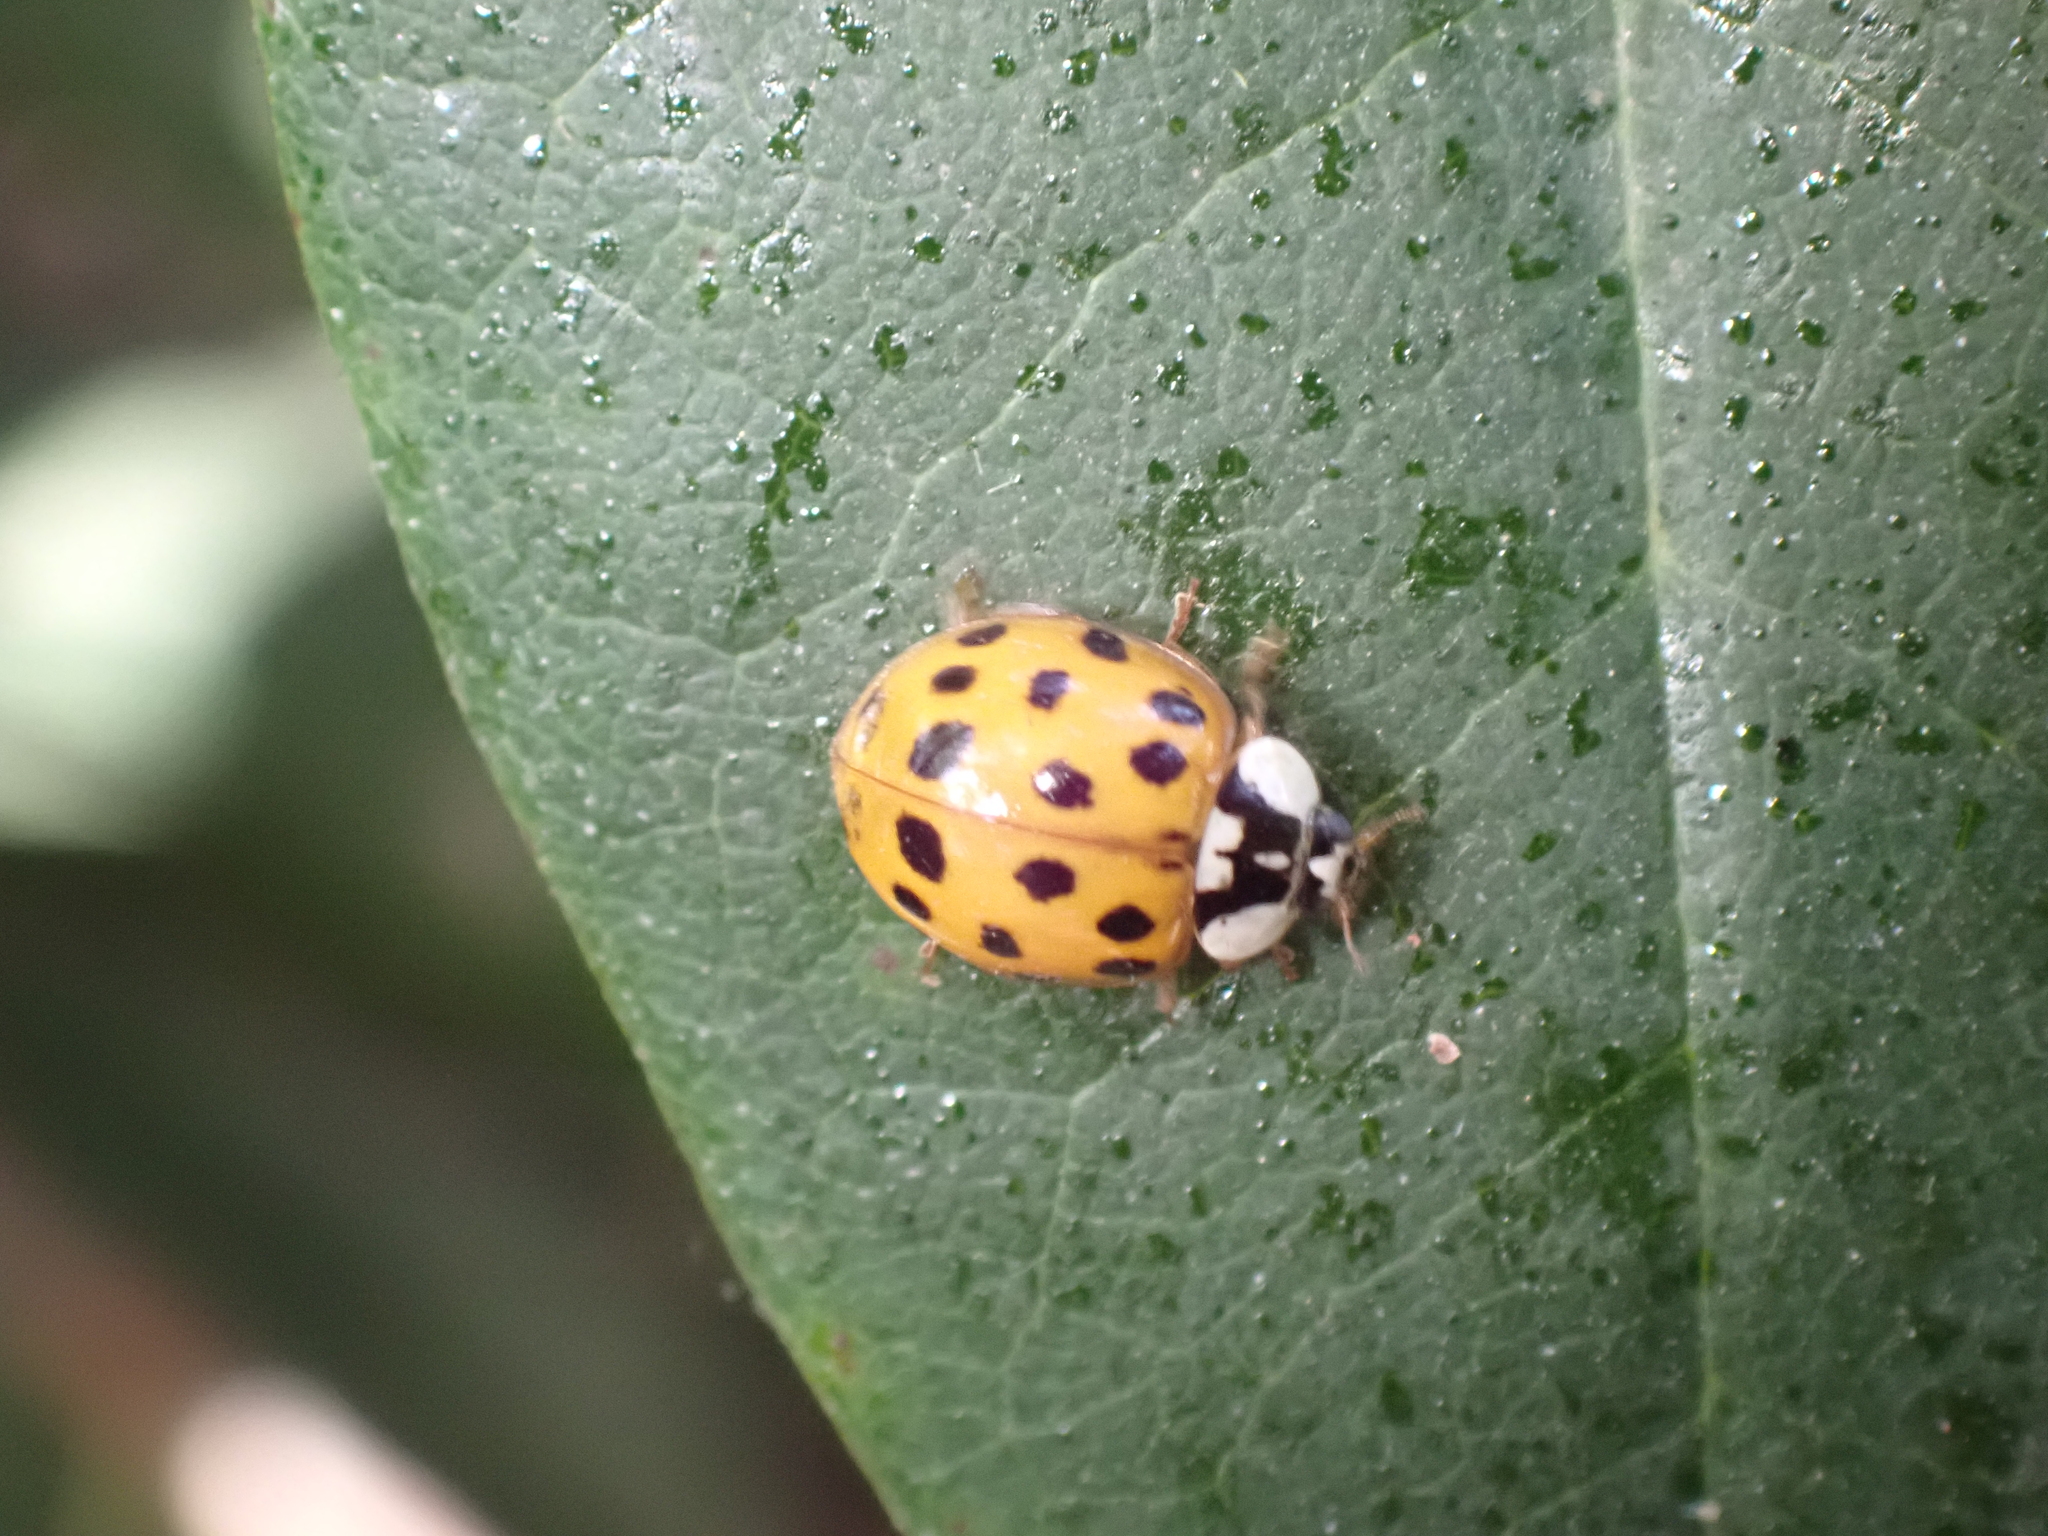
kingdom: Animalia
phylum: Arthropoda
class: Insecta
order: Coleoptera
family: Coccinellidae
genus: Harmonia
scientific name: Harmonia axyridis
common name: Harlequin ladybird
